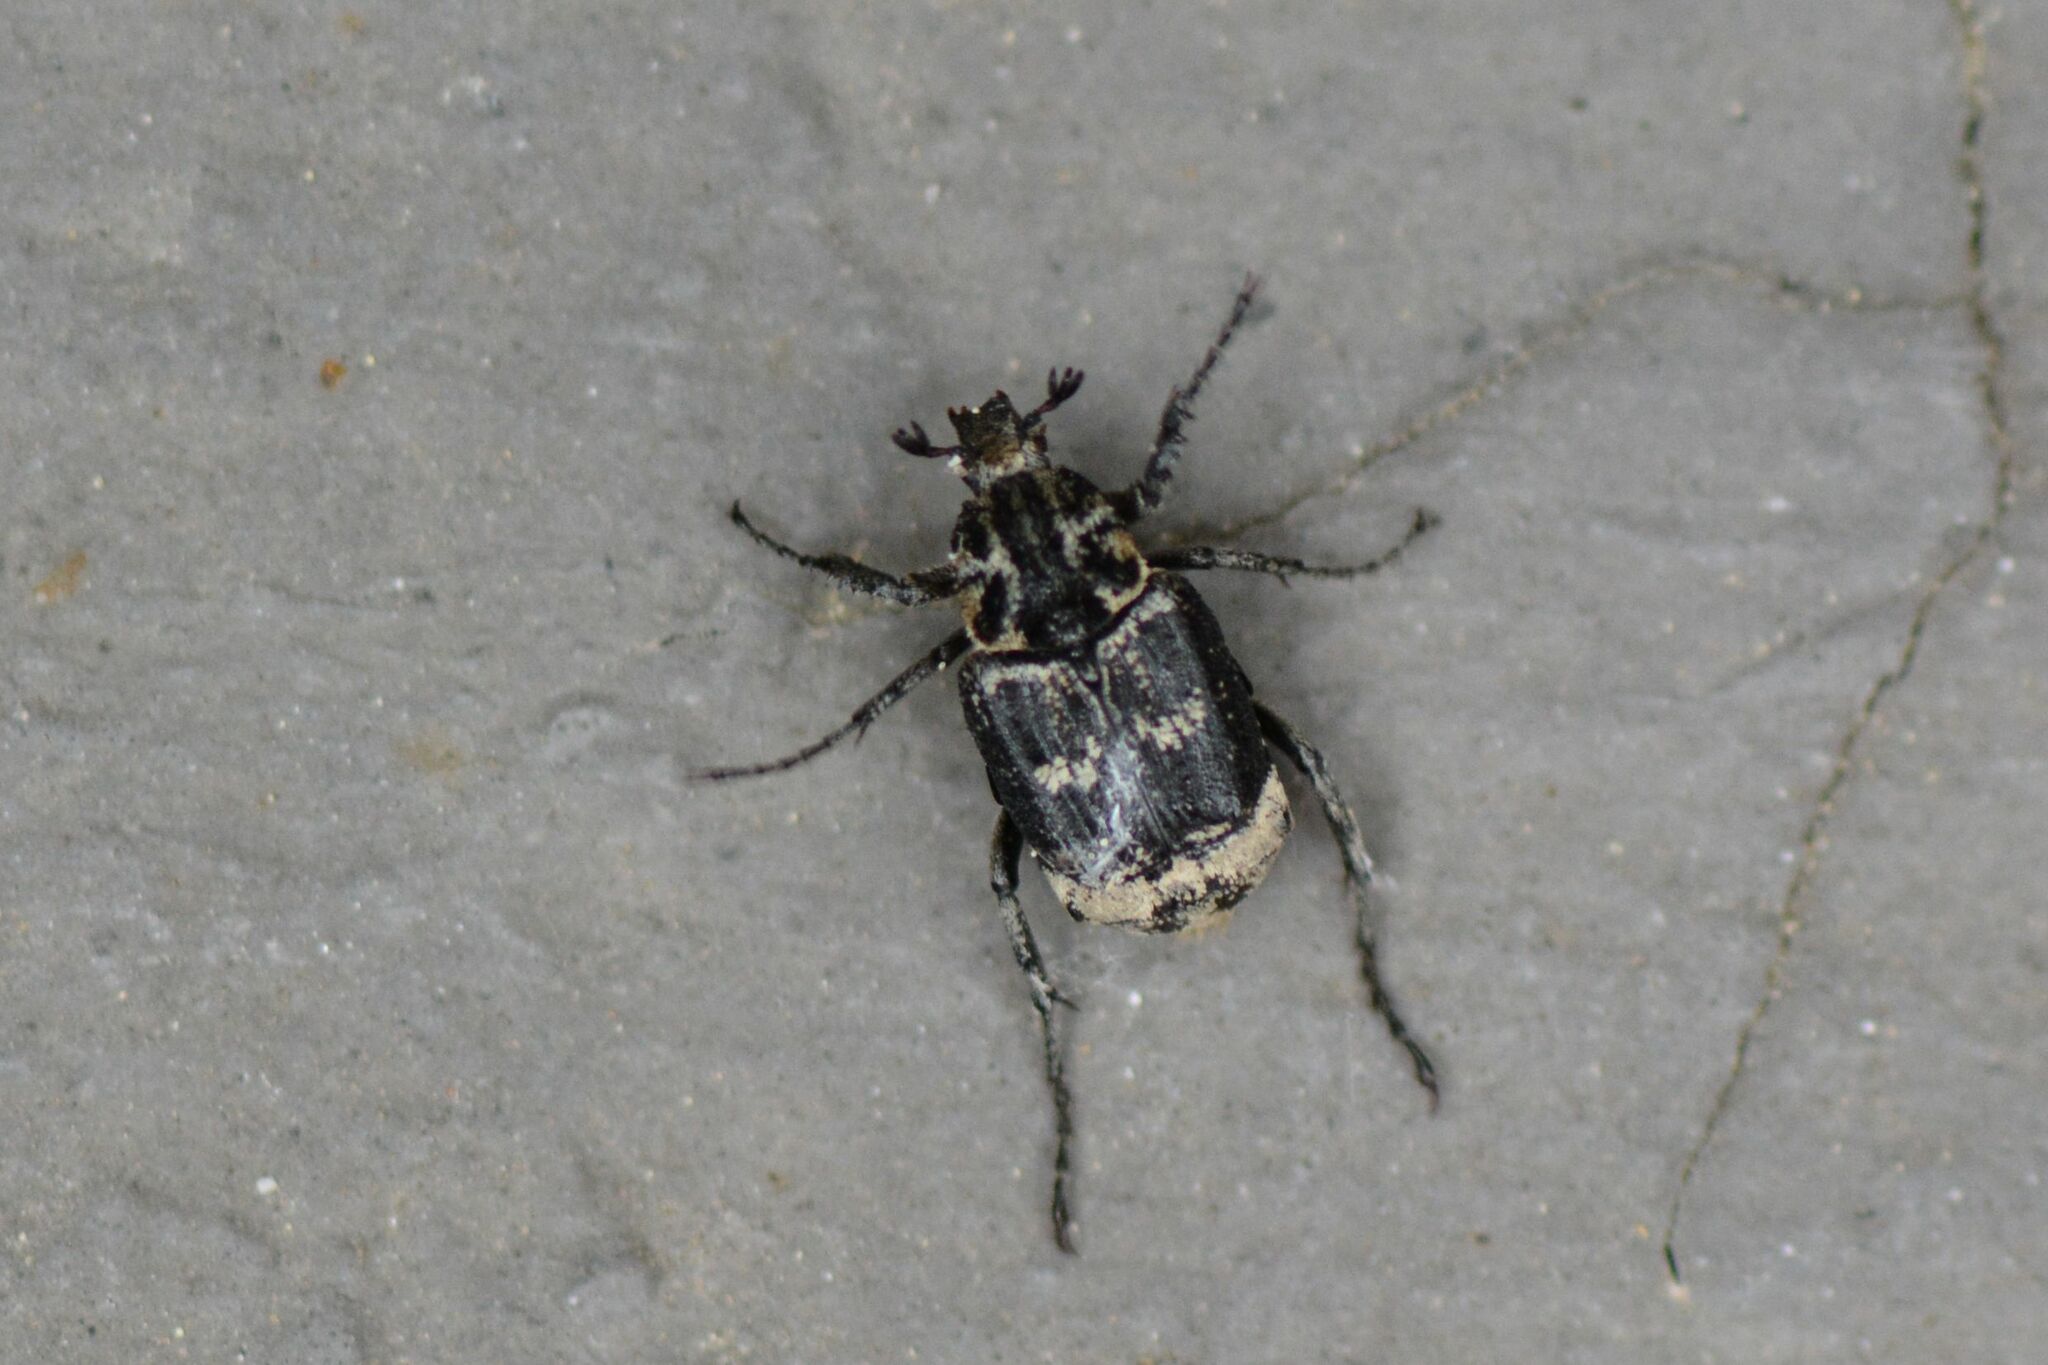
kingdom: Animalia
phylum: Arthropoda
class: Insecta
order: Coleoptera
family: Scarabaeidae
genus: Valgus
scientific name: Valgus hemipterus
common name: Bug flower chafer
